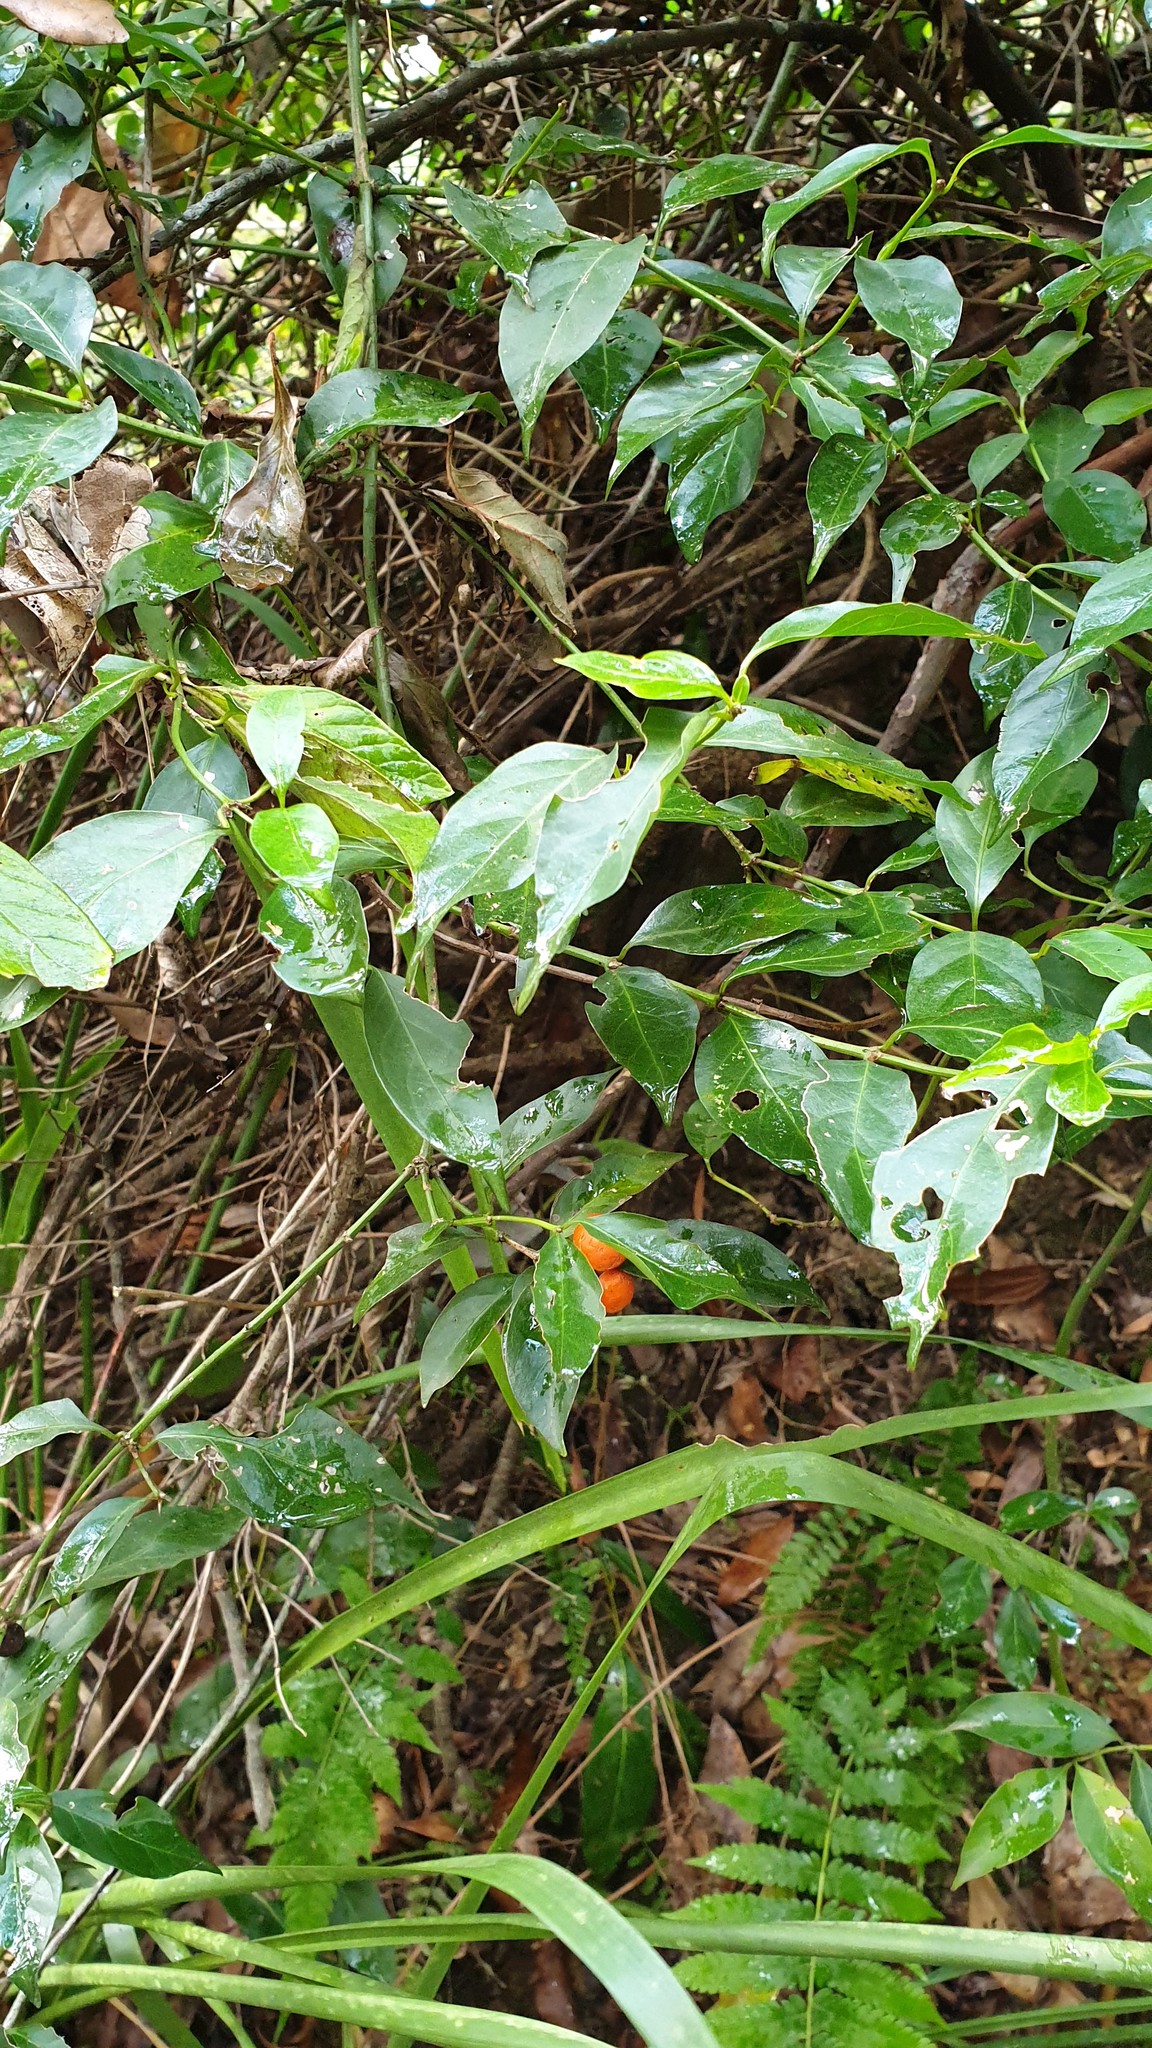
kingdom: Plantae
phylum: Tracheophyta
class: Magnoliopsida
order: Gentianales
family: Rubiaceae
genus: Gynochthodes
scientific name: Gynochthodes jasminoides
